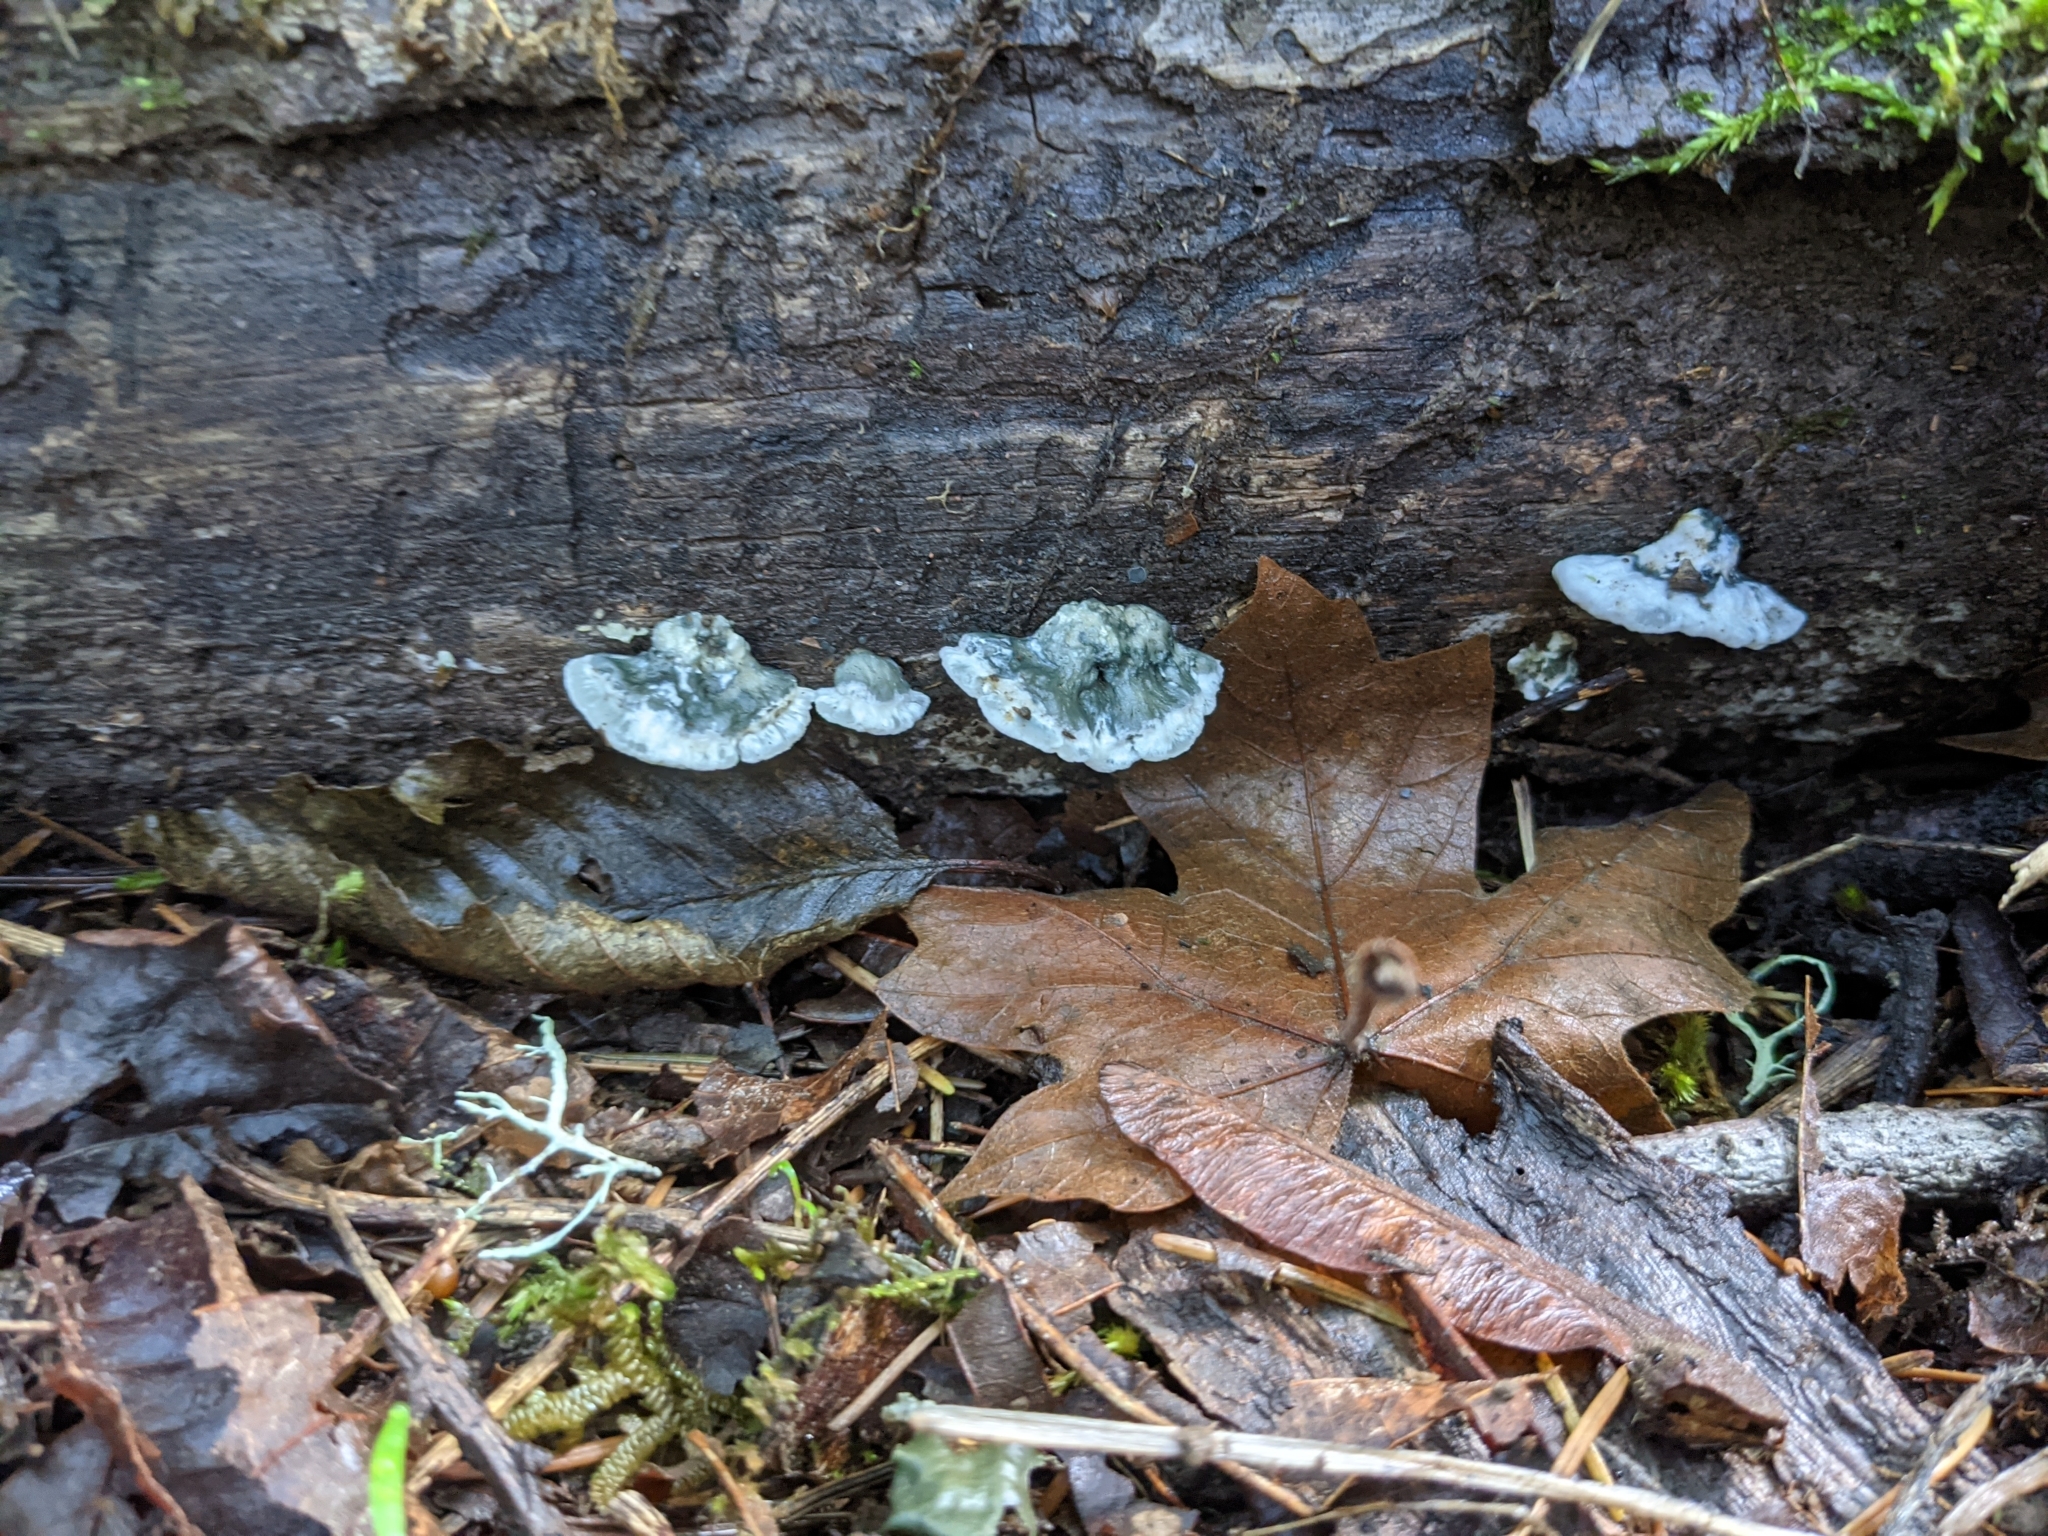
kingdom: Fungi
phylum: Basidiomycota
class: Agaricomycetes
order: Polyporales
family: Polyporaceae
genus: Cyanosporus
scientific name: Cyanosporus caesius
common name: Blue cheese polypore
